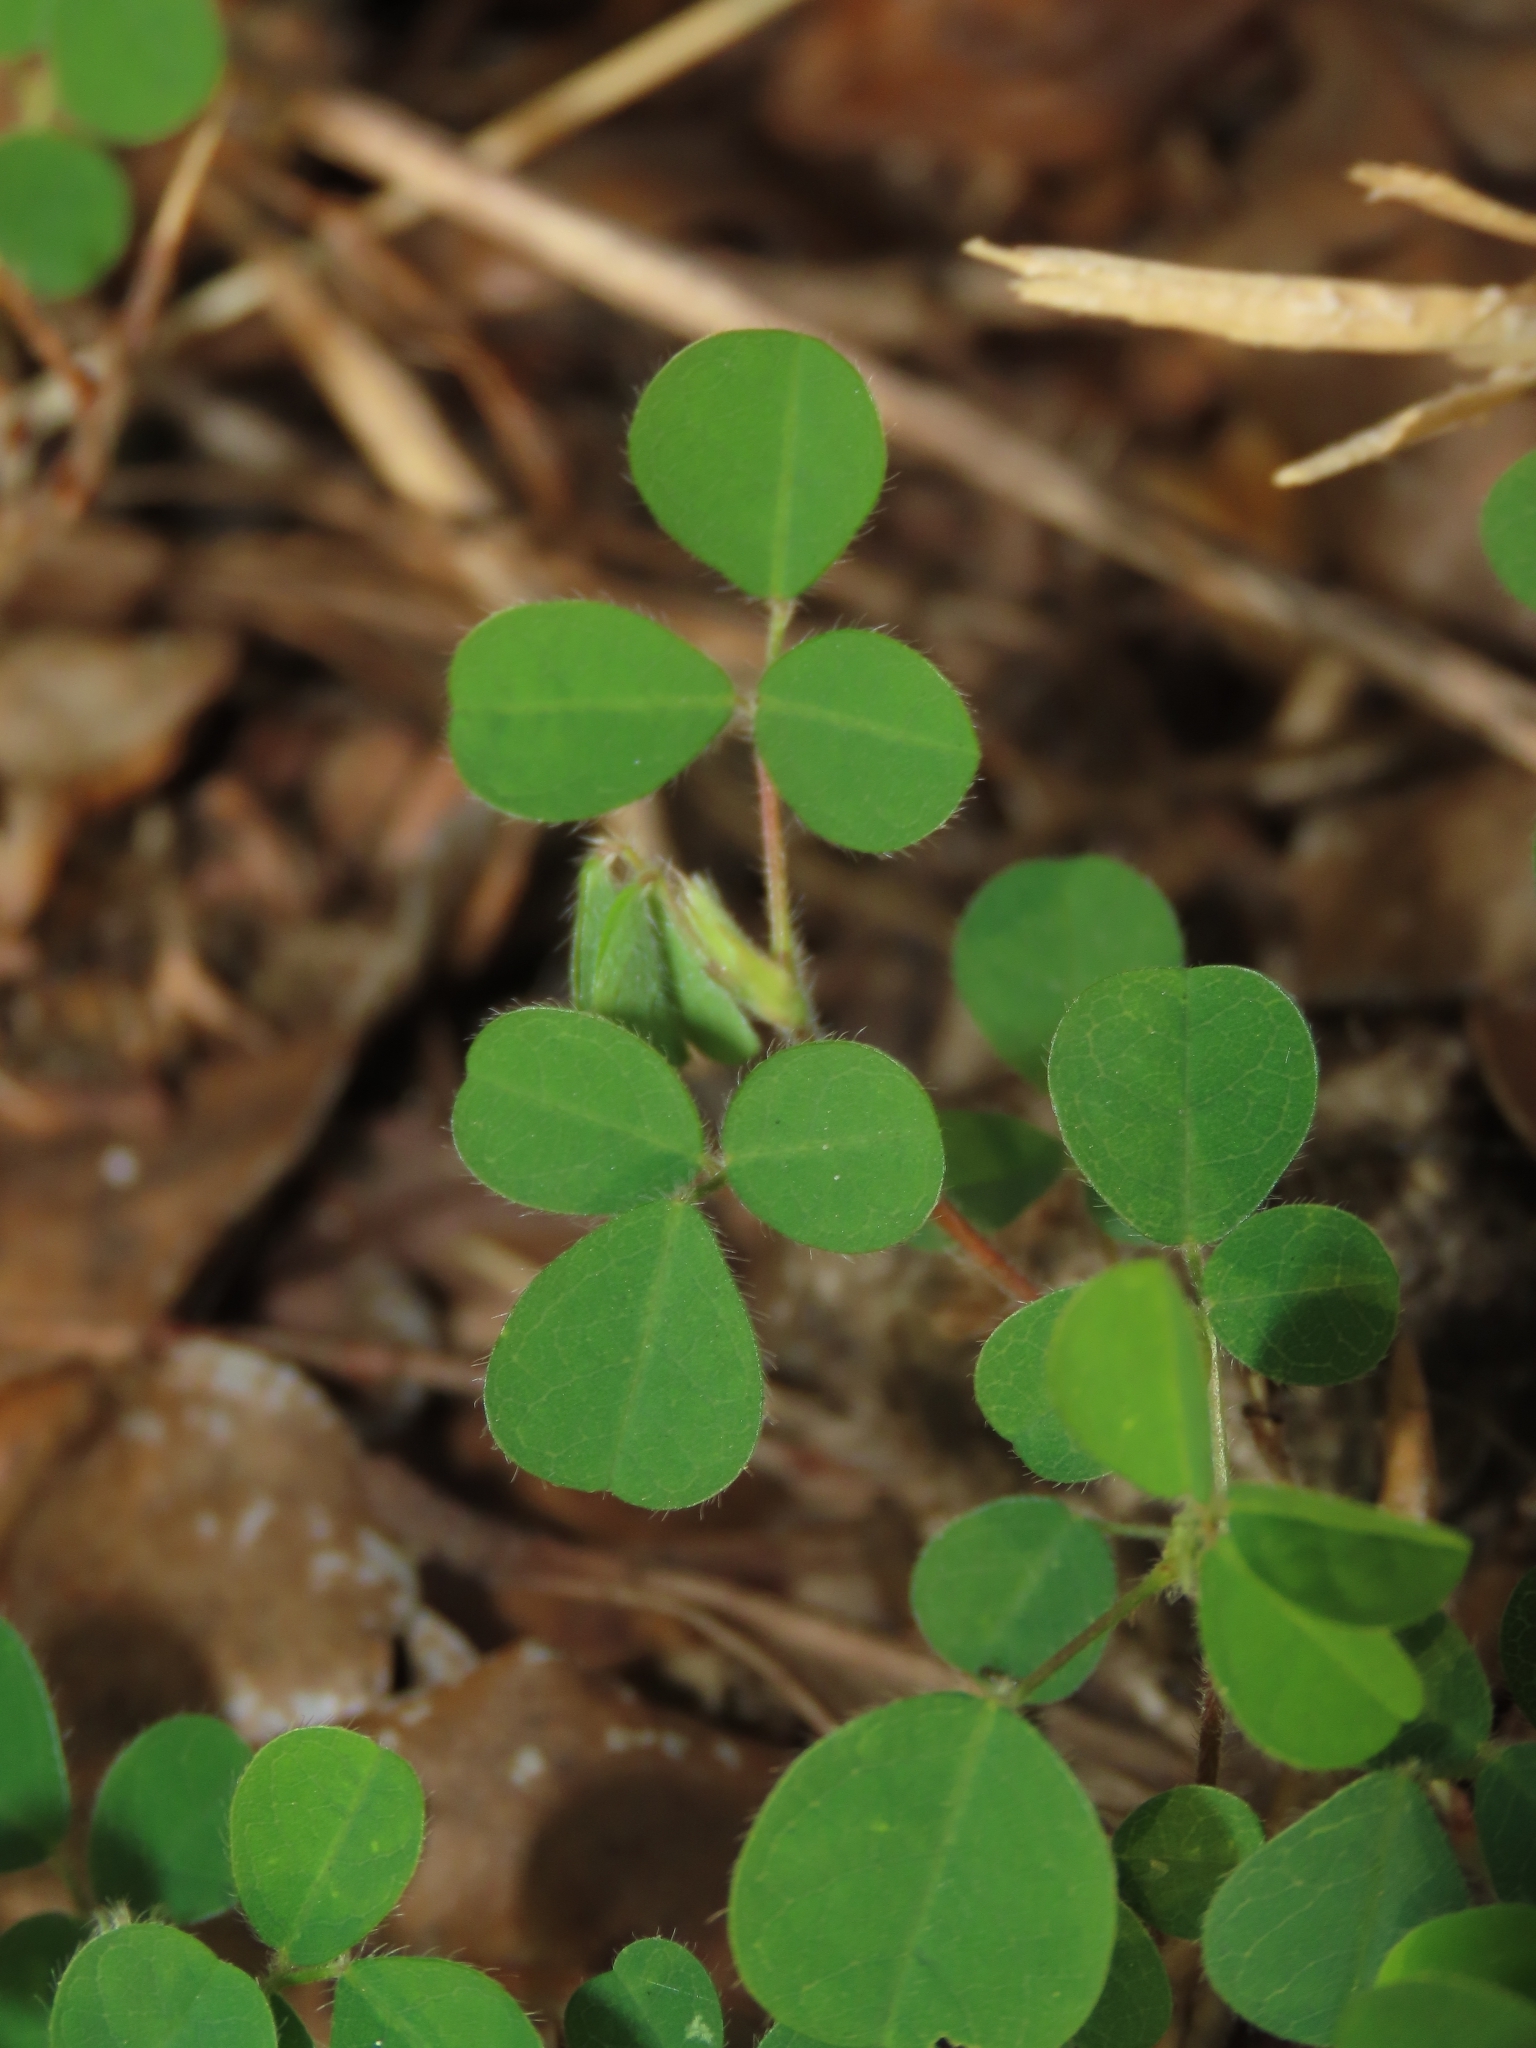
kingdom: Plantae
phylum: Tracheophyta
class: Magnoliopsida
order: Fabales
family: Fabaceae
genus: Grona
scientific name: Grona triflora
